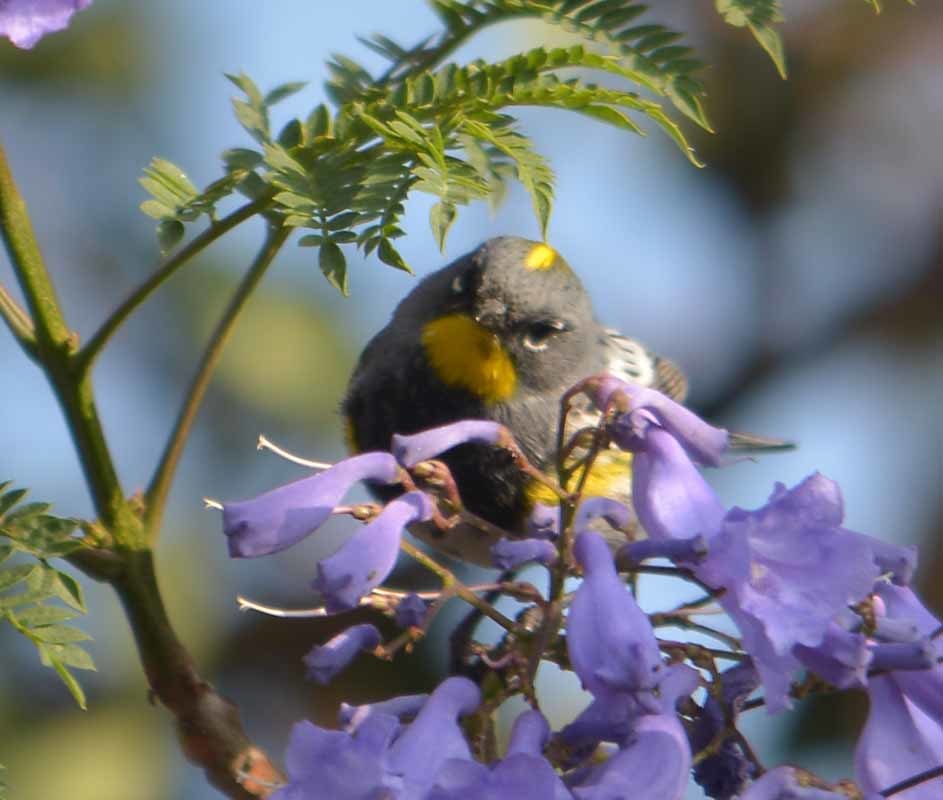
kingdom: Animalia
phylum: Chordata
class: Aves
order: Passeriformes
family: Parulidae
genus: Setophaga
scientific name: Setophaga auduboni
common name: Audubon's warbler
